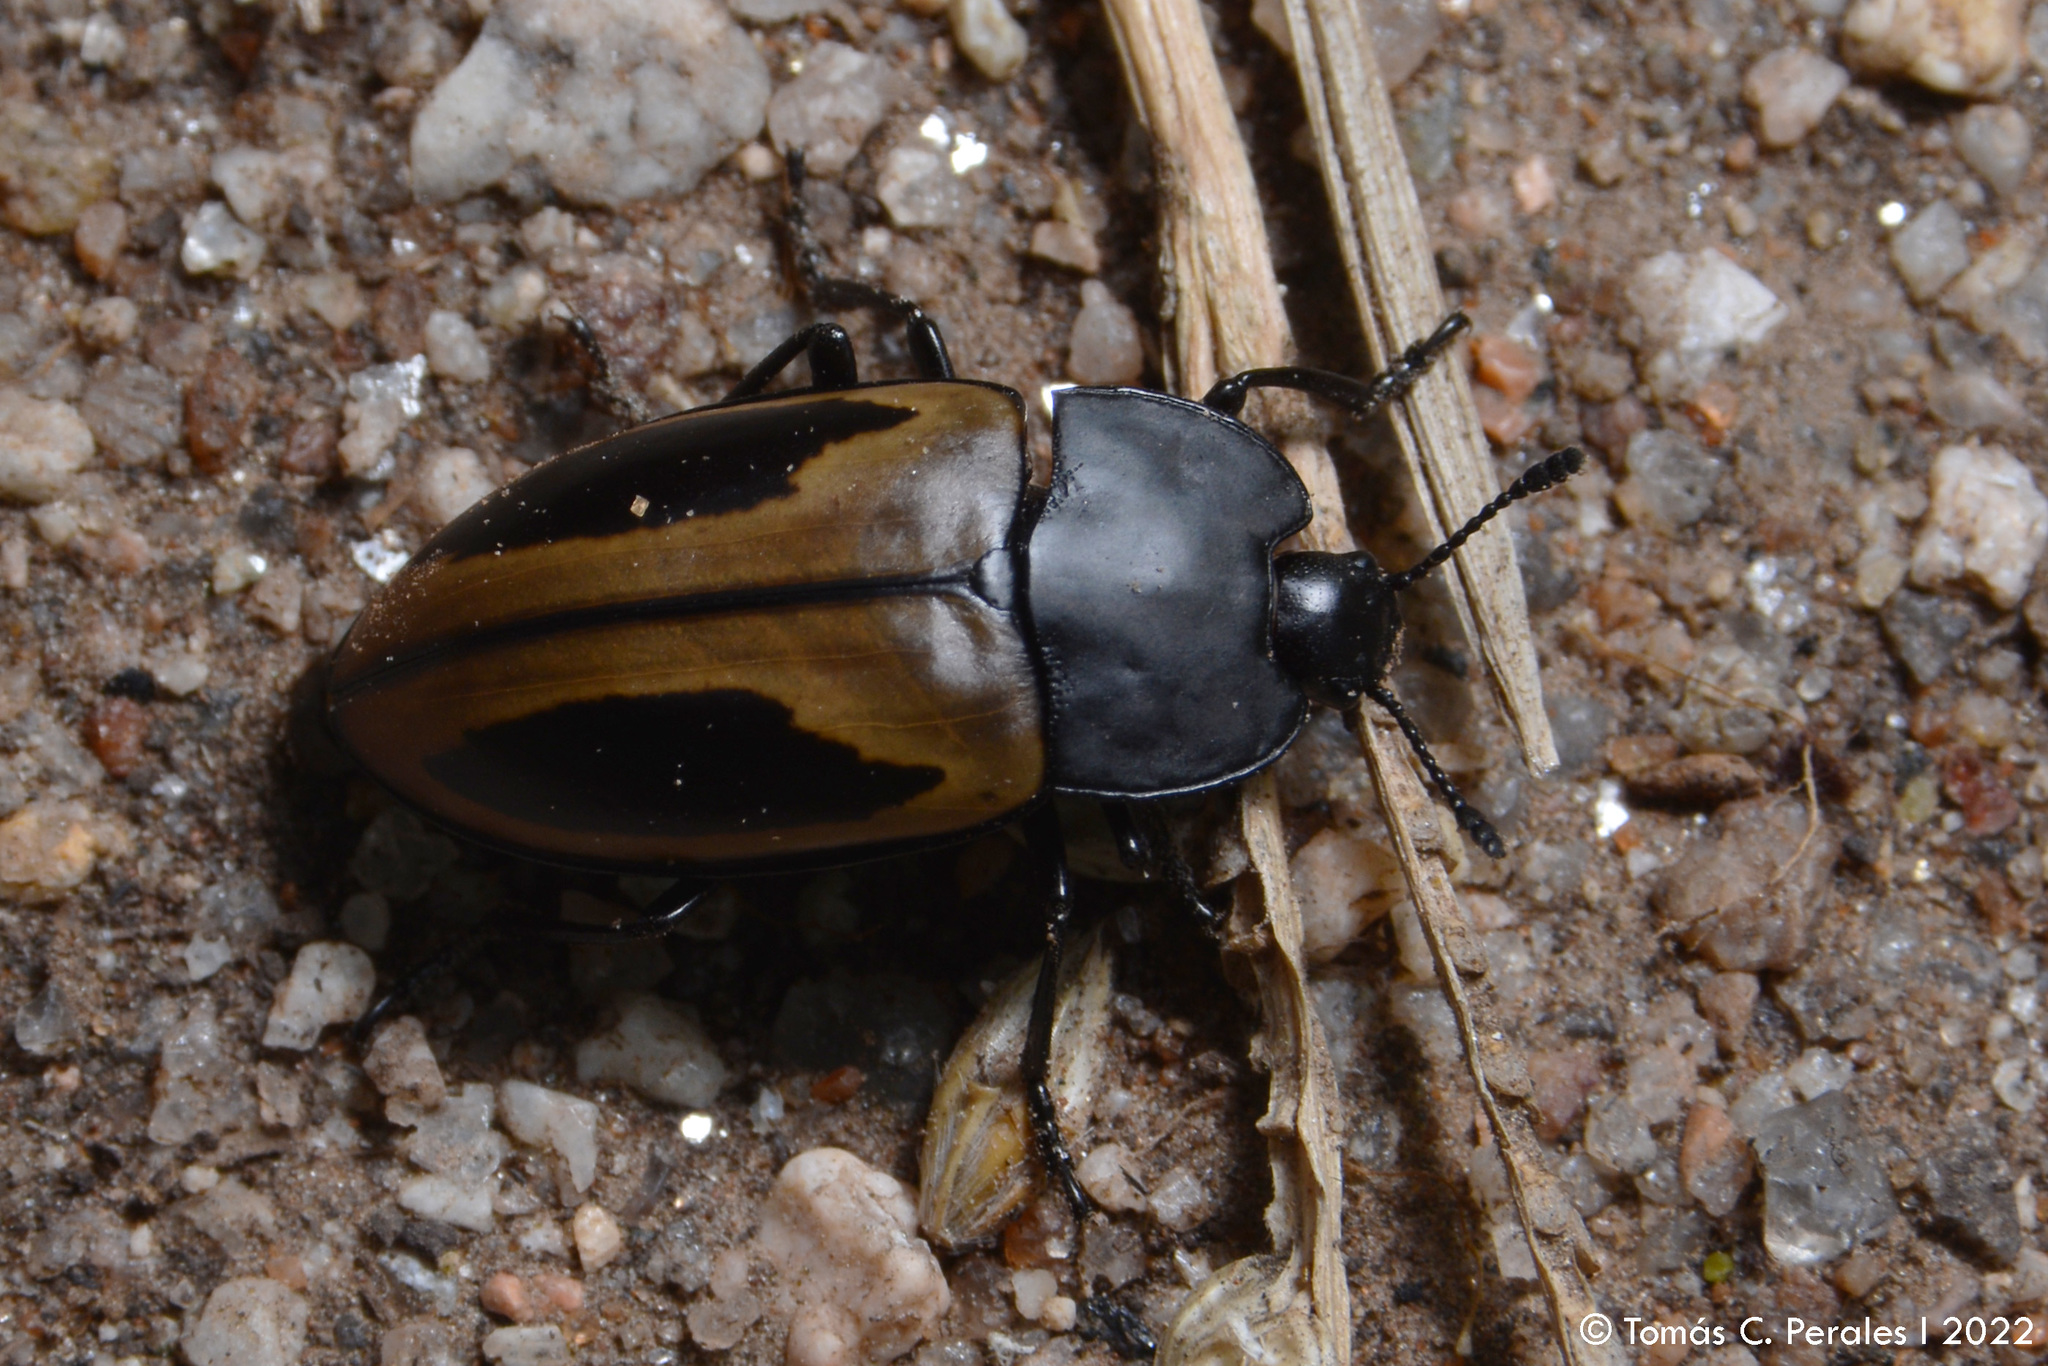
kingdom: Animalia
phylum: Arthropoda
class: Insecta
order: Coleoptera
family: Erotylidae
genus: Iphiclus
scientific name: Iphiclus
